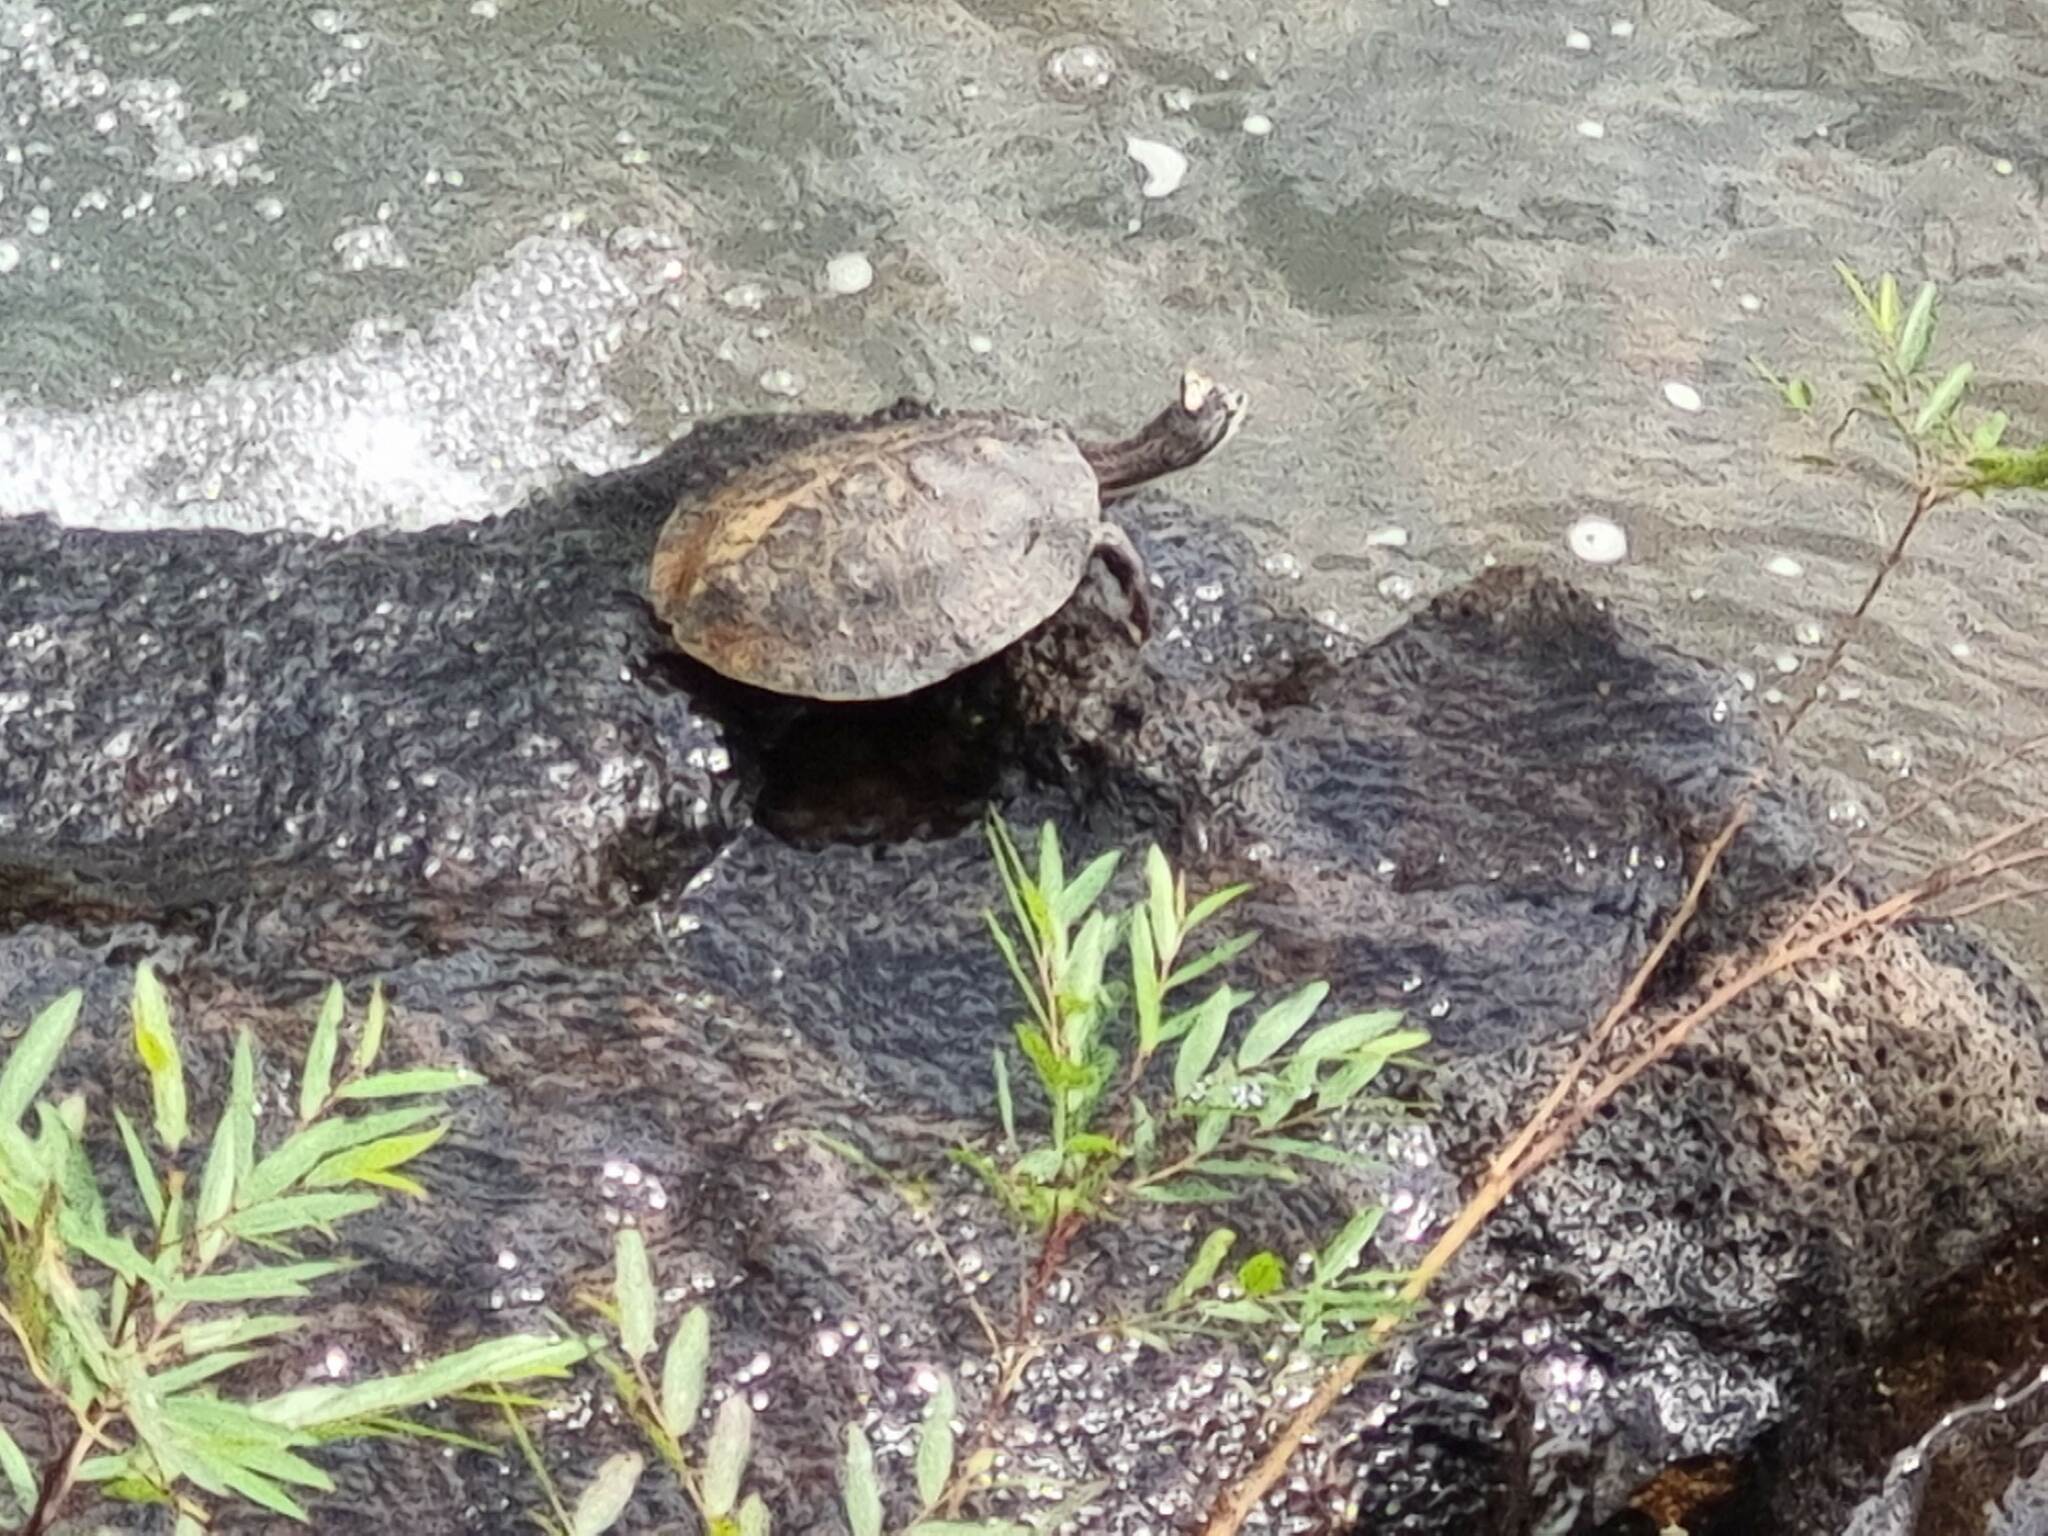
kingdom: Animalia
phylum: Chordata
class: Testudines
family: Chelidae
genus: Phrynops
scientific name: Phrynops williamsi
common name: Williams side-necked turtle
